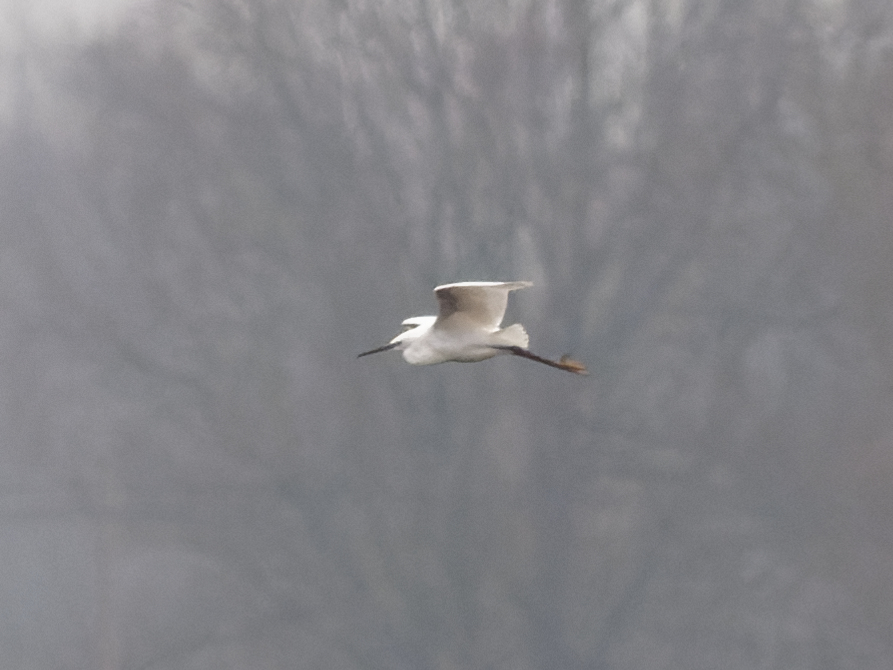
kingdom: Animalia
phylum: Chordata
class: Aves
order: Pelecaniformes
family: Ardeidae
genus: Egretta
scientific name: Egretta garzetta
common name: Little egret
